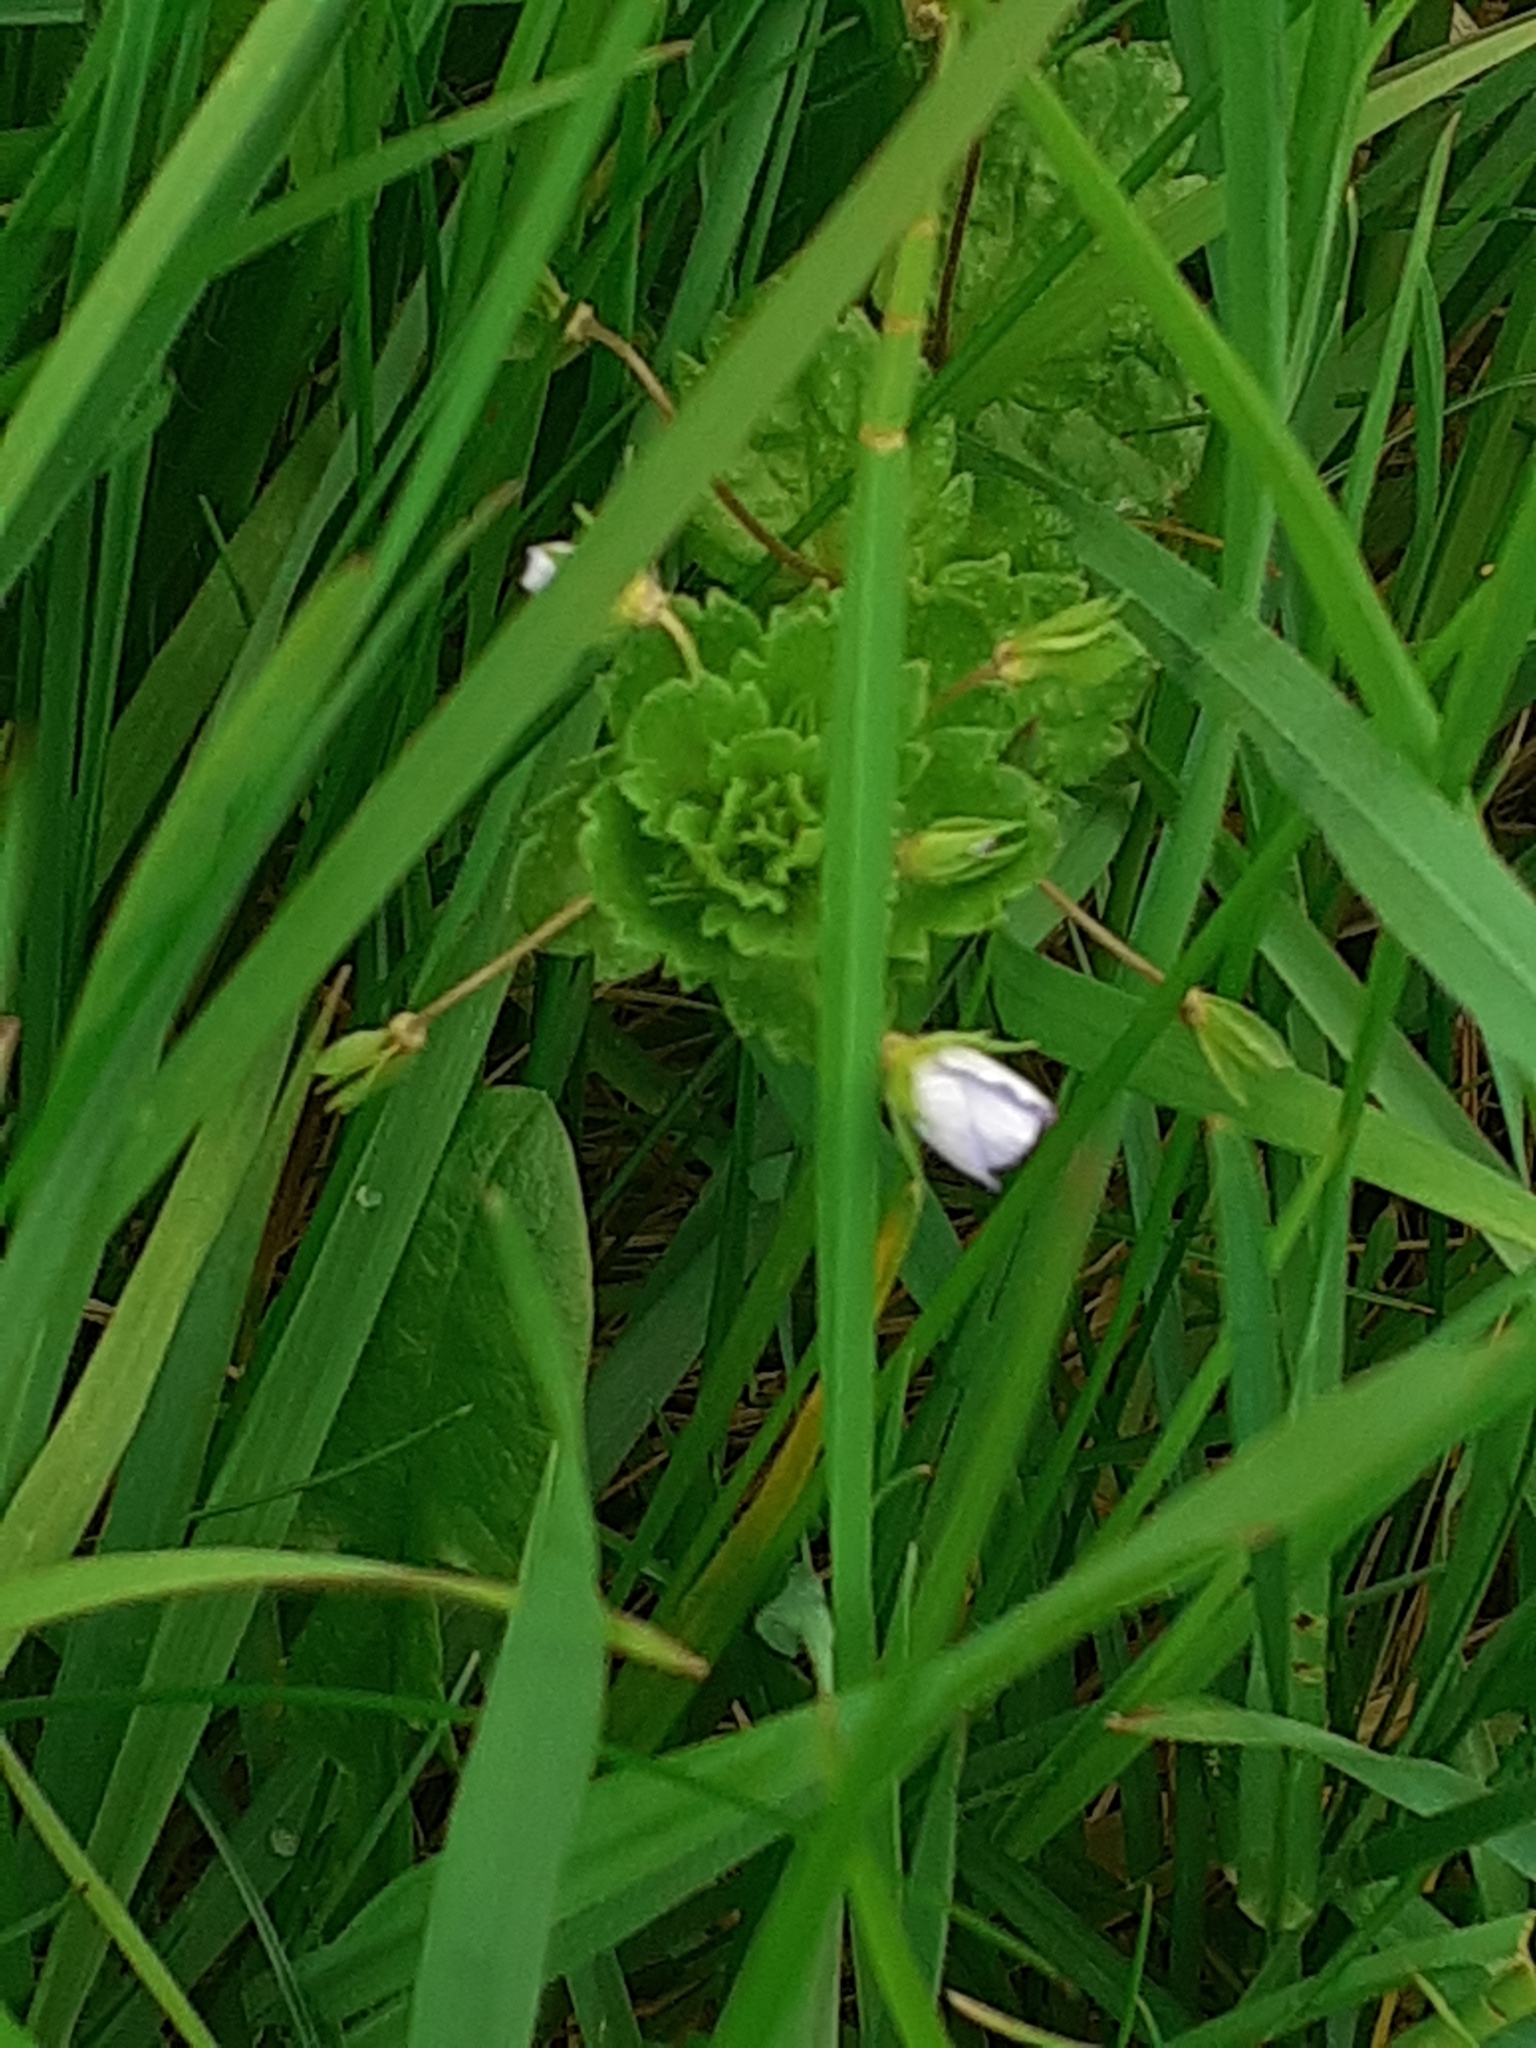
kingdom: Plantae
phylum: Tracheophyta
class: Magnoliopsida
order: Lamiales
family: Plantaginaceae
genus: Veronica
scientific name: Veronica persica
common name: Common field-speedwell
